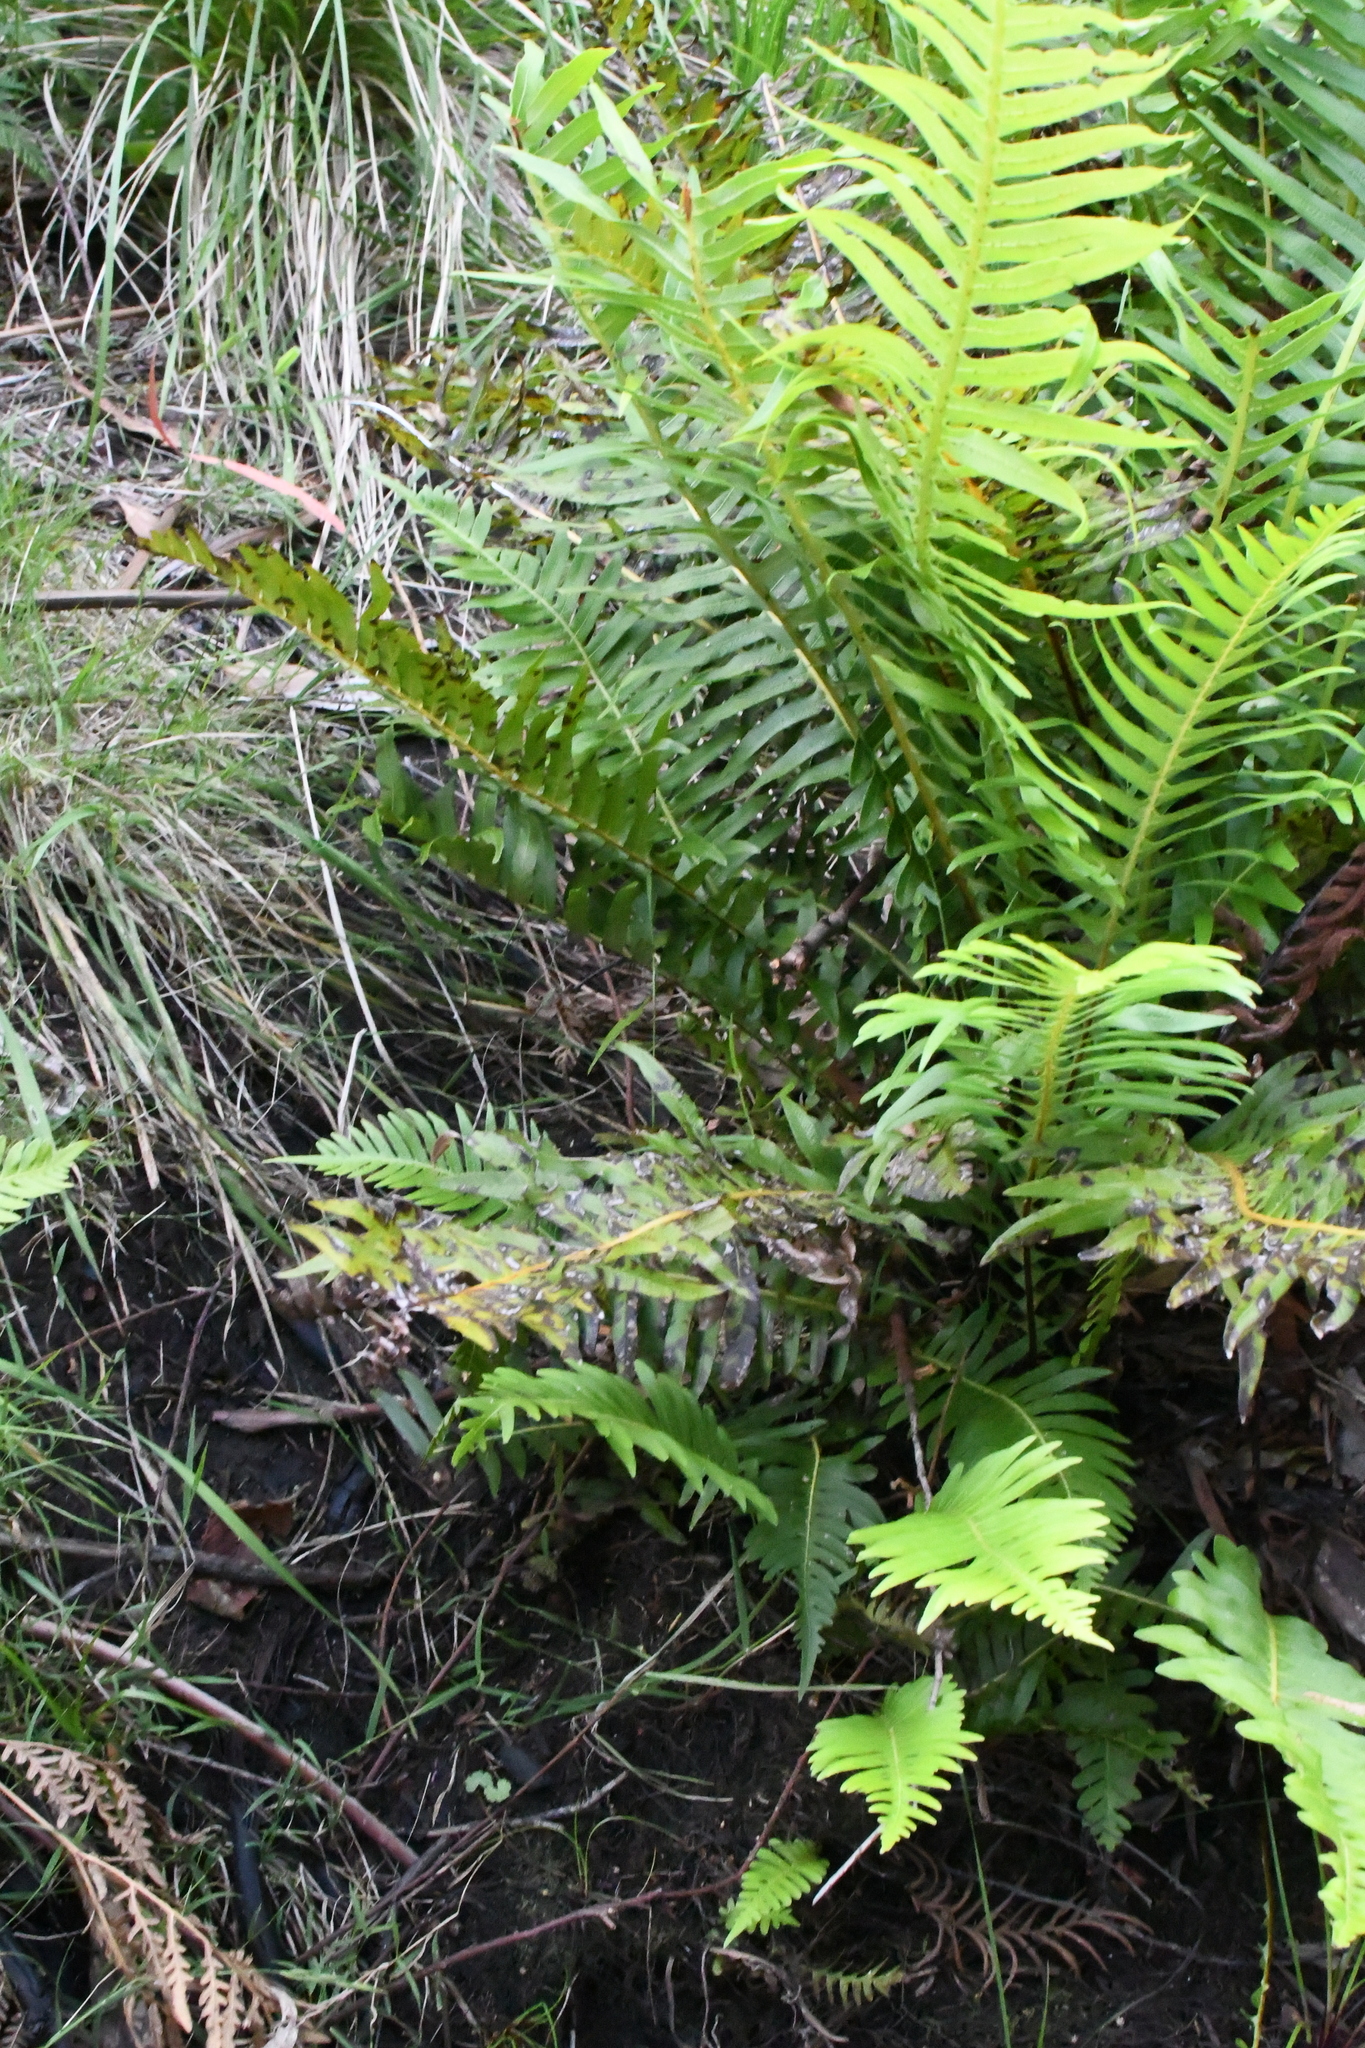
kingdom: Plantae
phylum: Tracheophyta
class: Polypodiopsida
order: Polypodiales
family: Blechnaceae
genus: Lomaria
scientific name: Lomaria nuda
